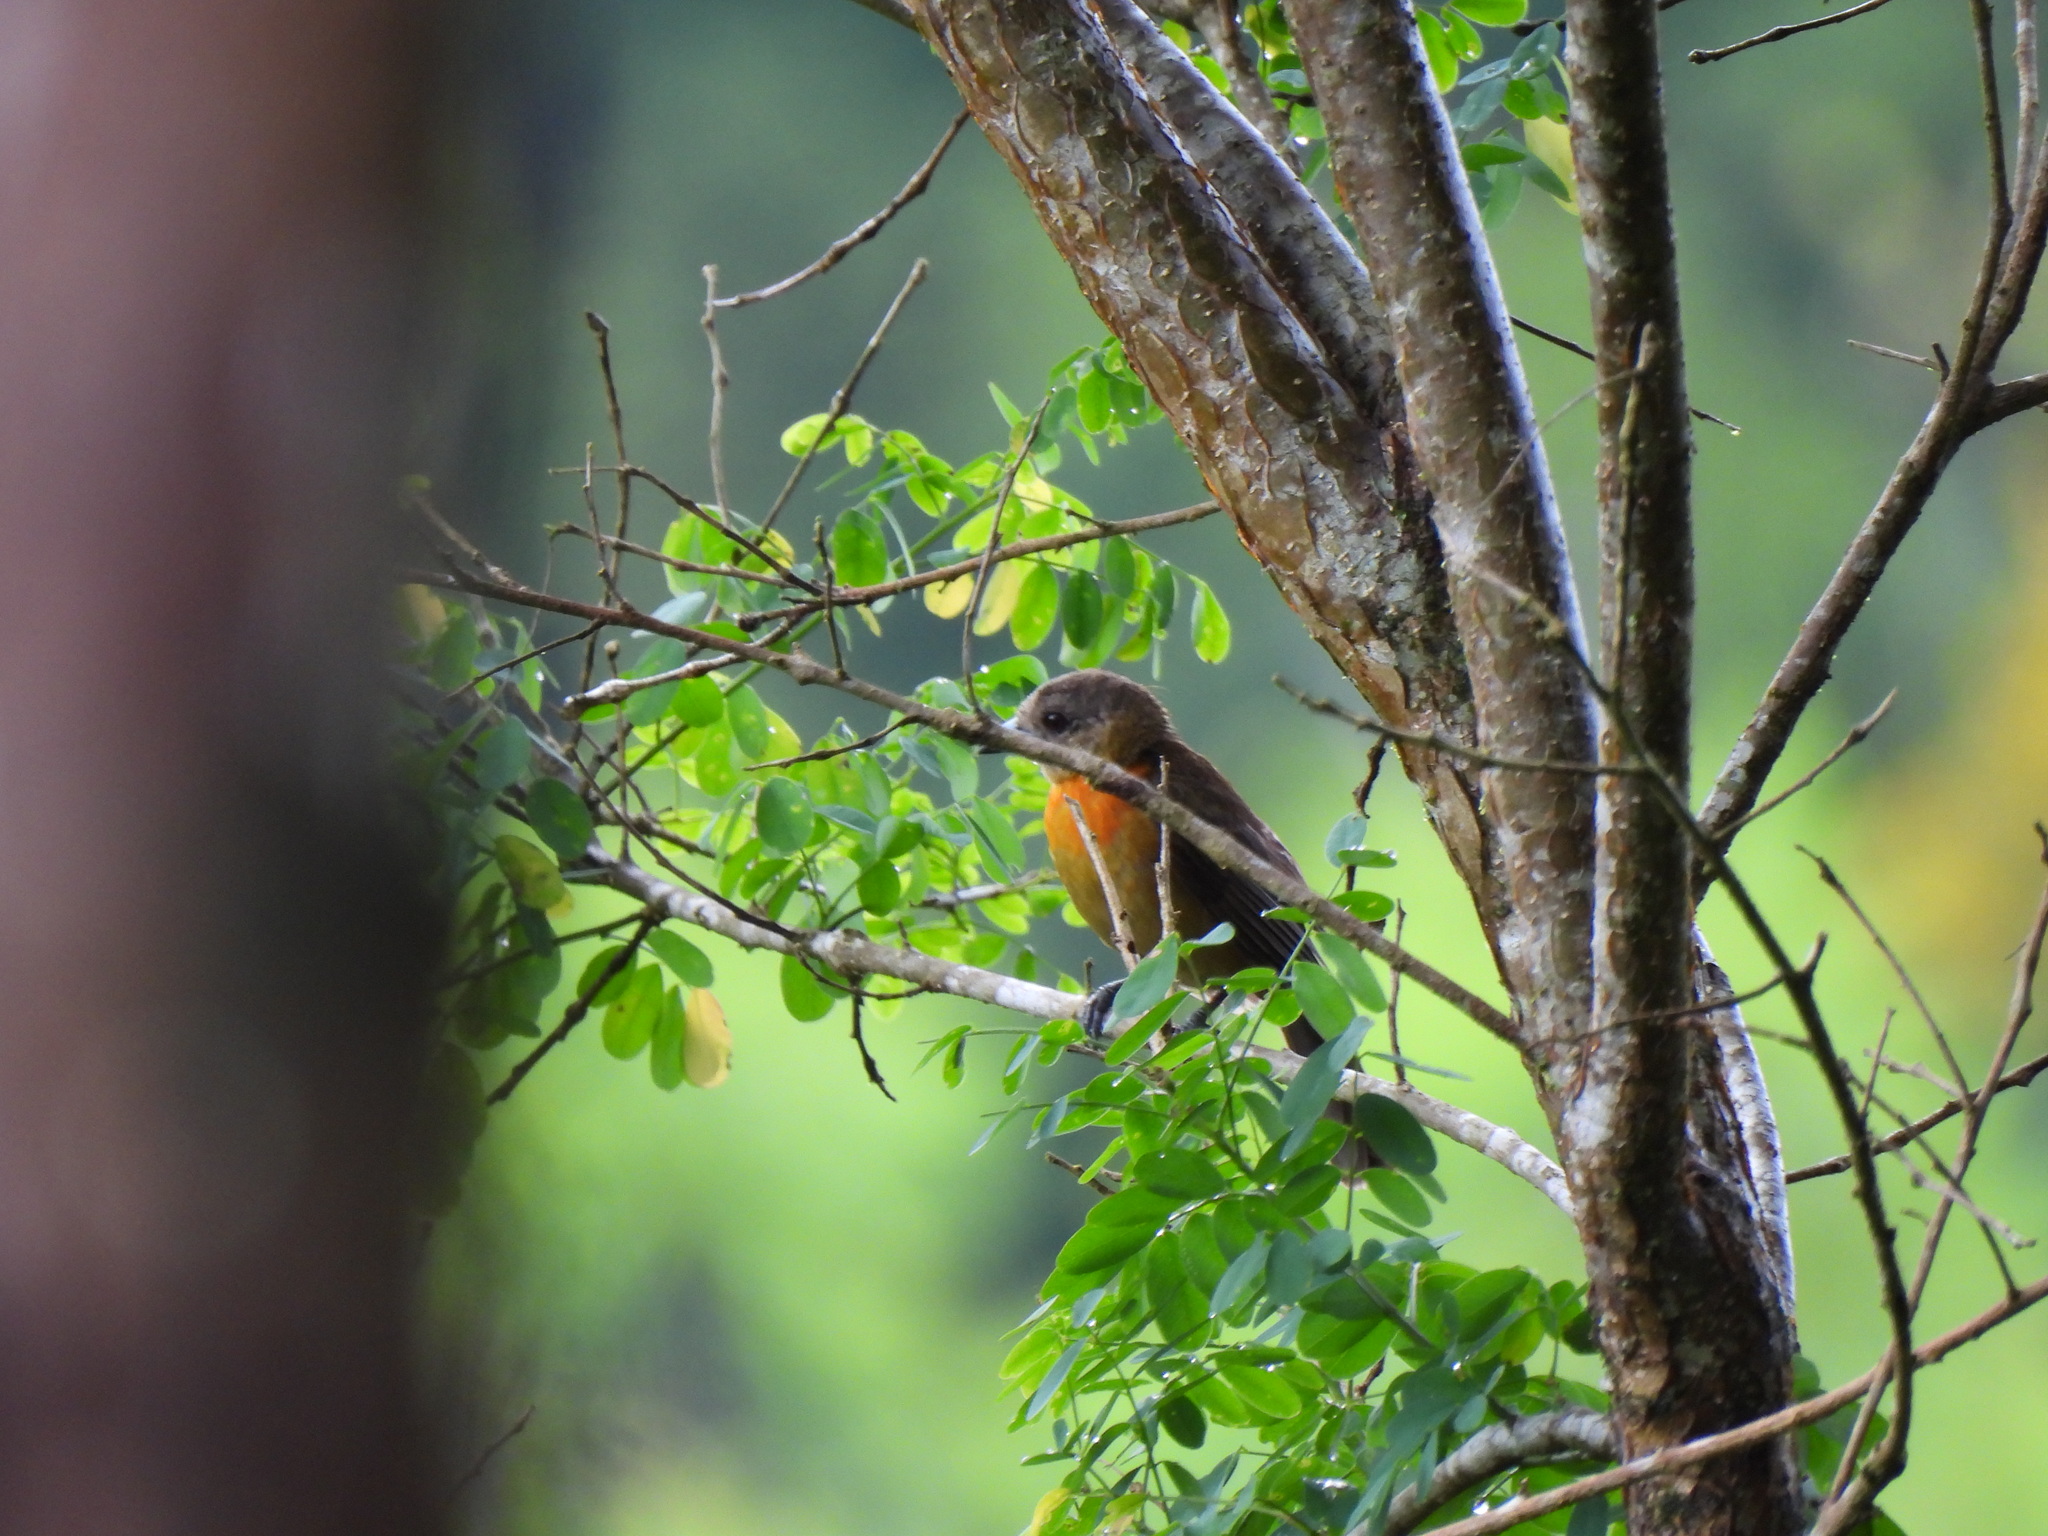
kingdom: Animalia
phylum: Chordata
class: Aves
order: Passeriformes
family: Thraupidae
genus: Ramphocelus
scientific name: Ramphocelus passerinii
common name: Passerini's tanager
